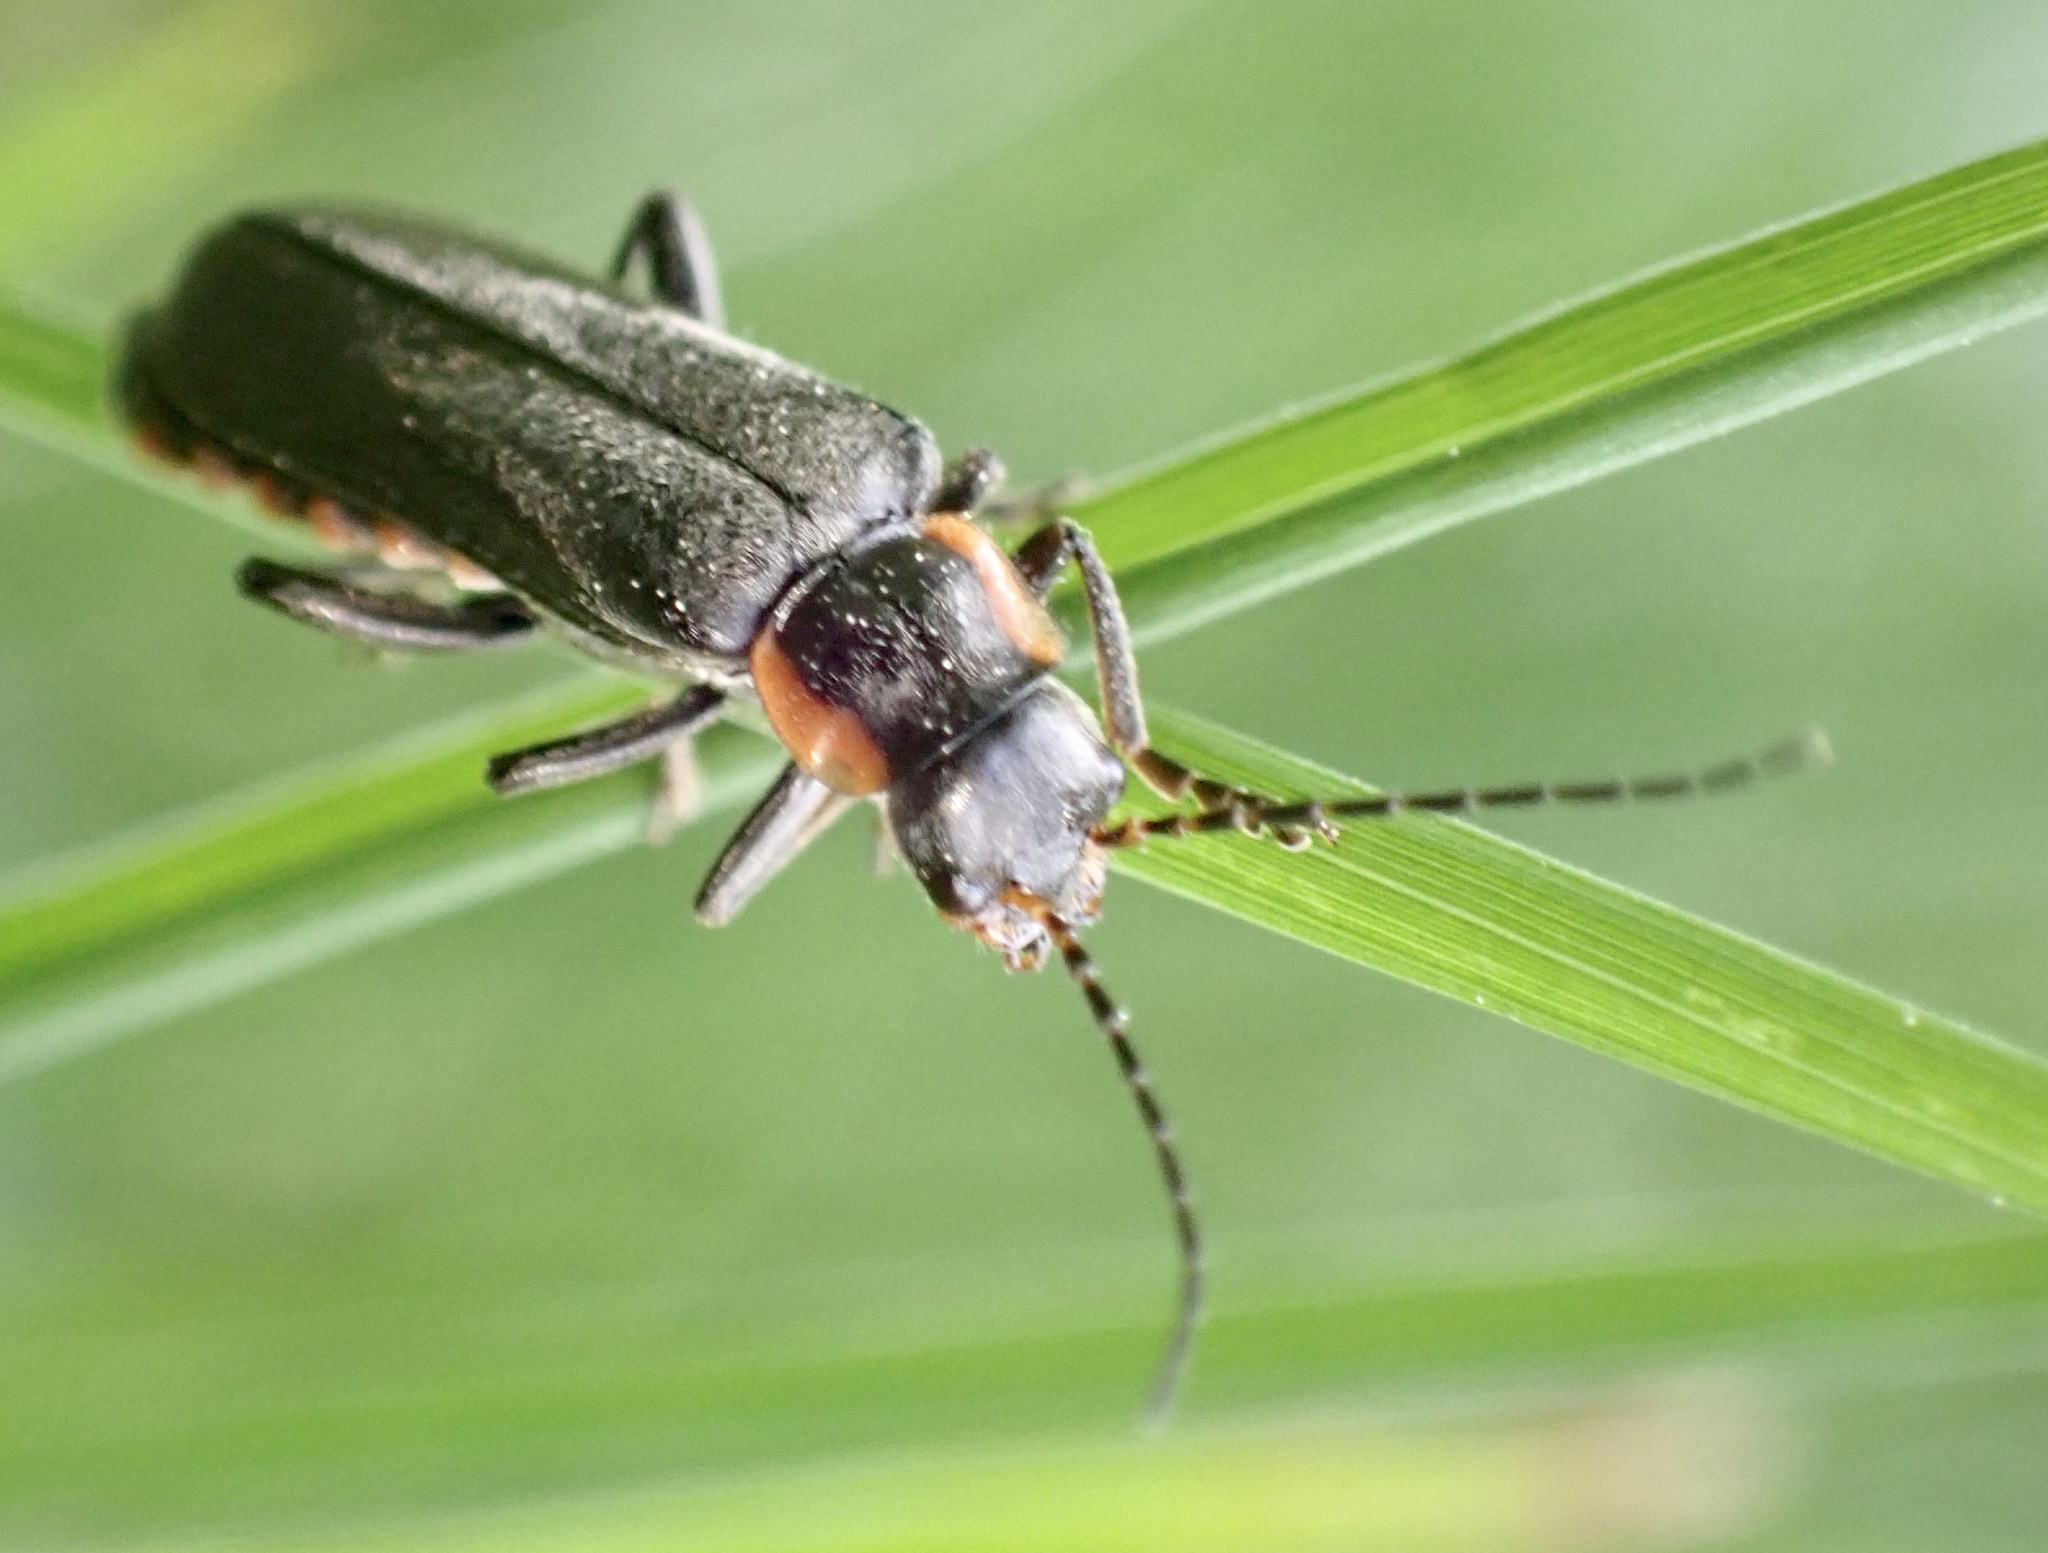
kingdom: Animalia
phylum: Arthropoda
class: Insecta
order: Coleoptera
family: Cantharidae
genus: Cantharis
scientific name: Cantharis obscura
